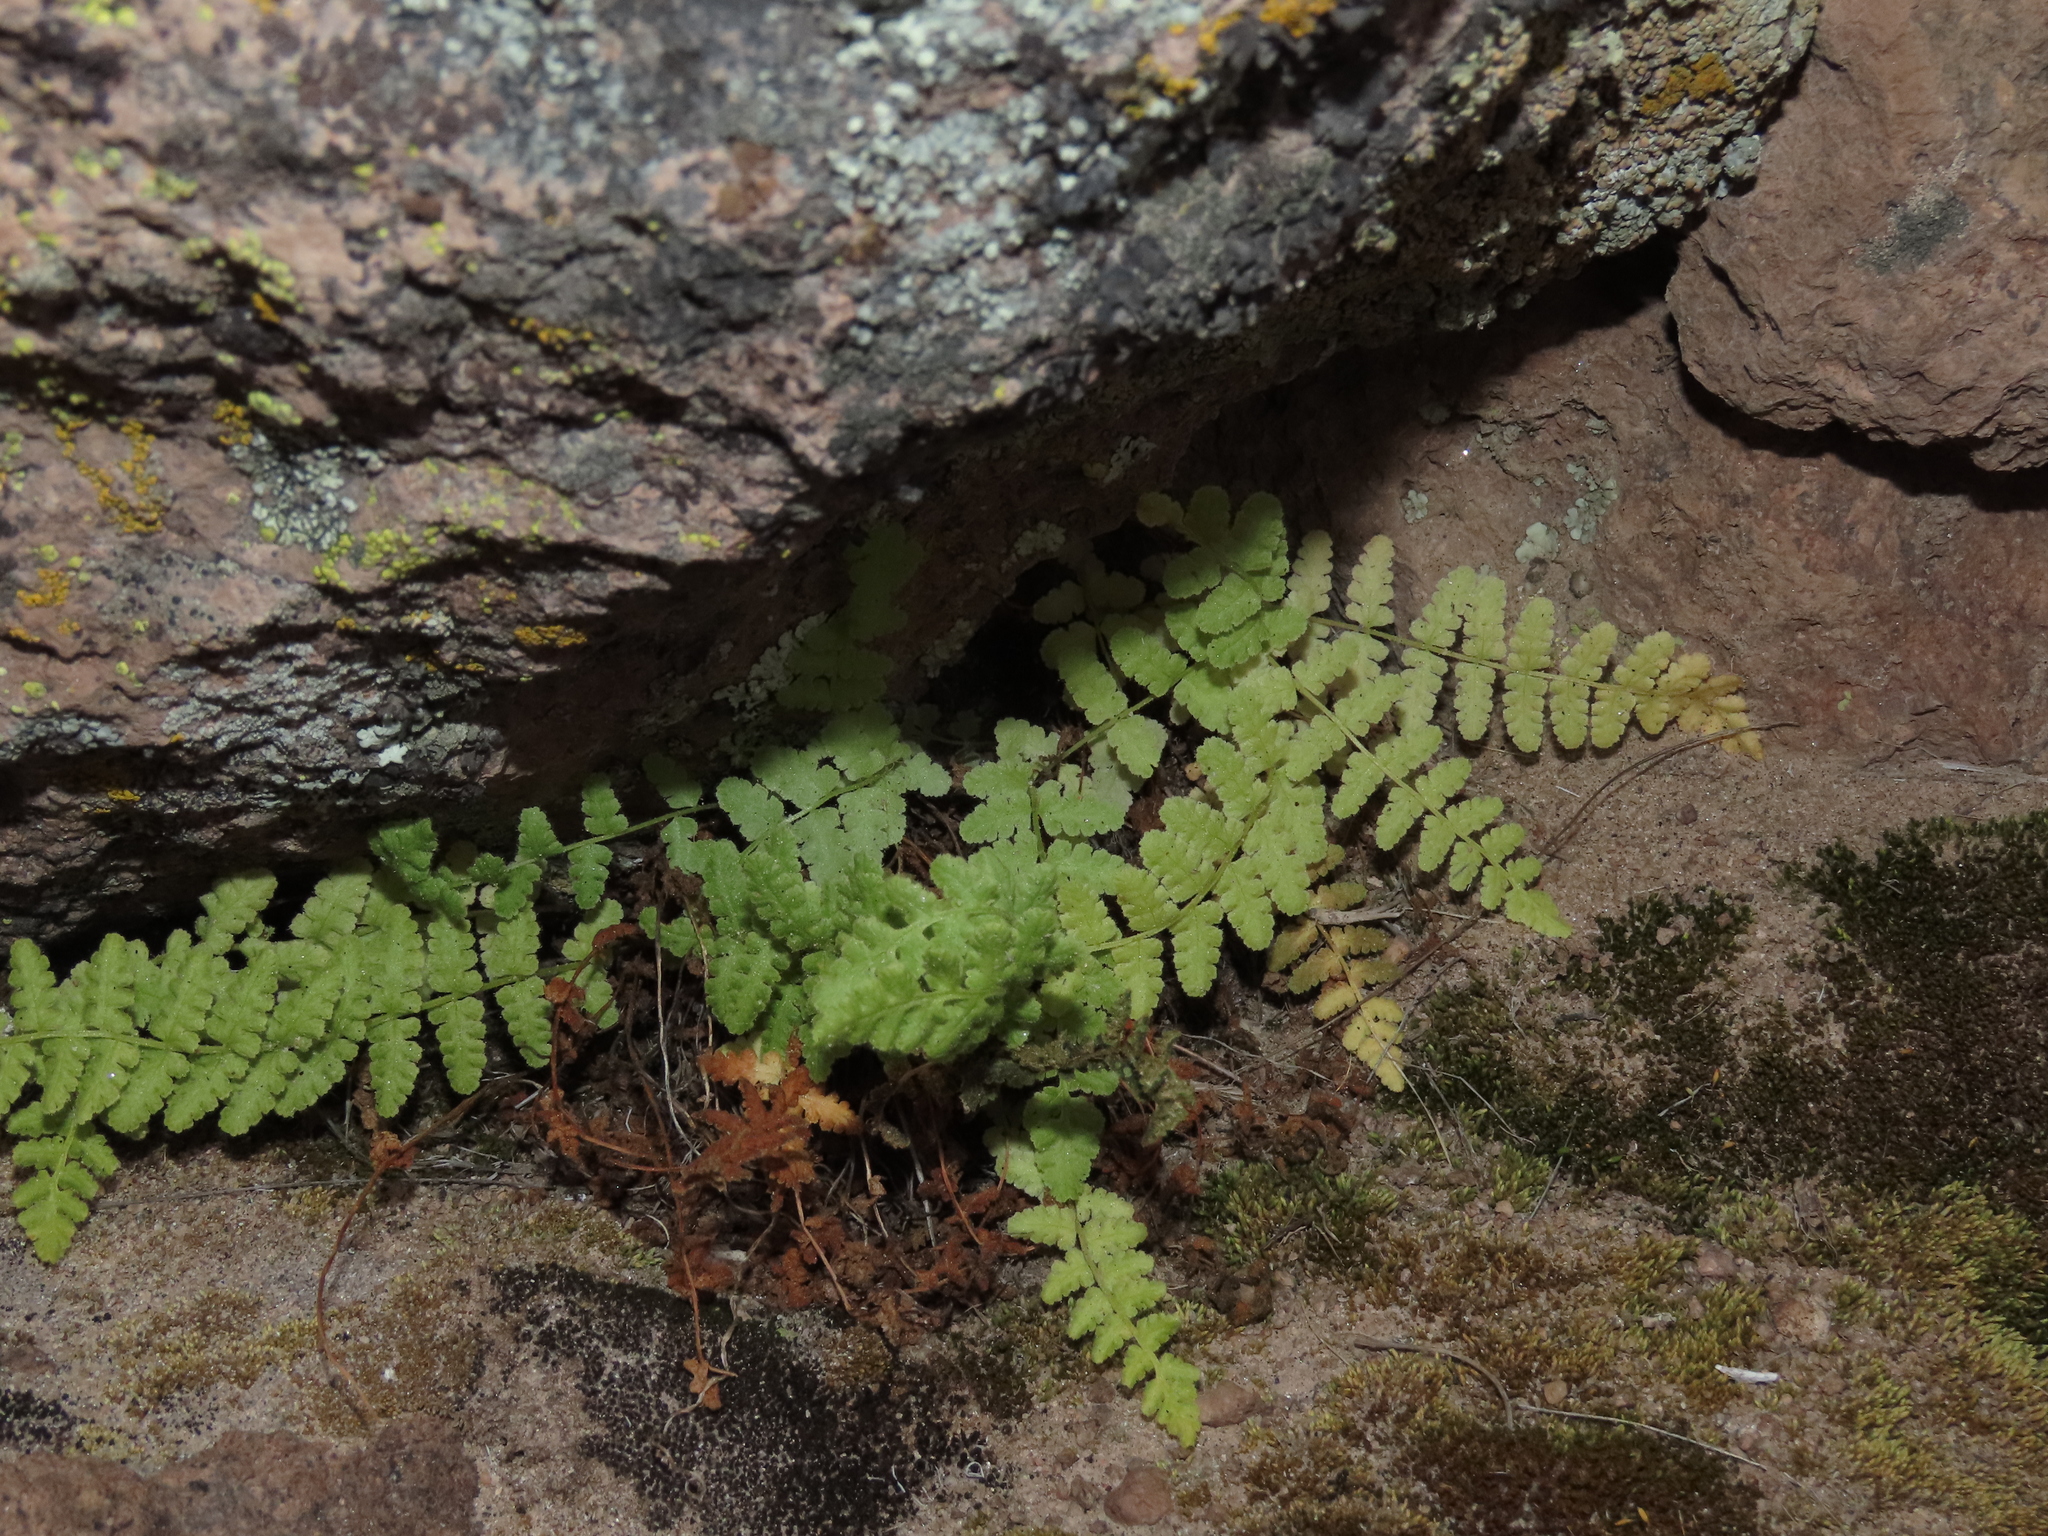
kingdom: Plantae
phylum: Tracheophyta
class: Polypodiopsida
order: Polypodiales
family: Woodsiaceae
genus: Physematium
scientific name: Physematium montevidense
